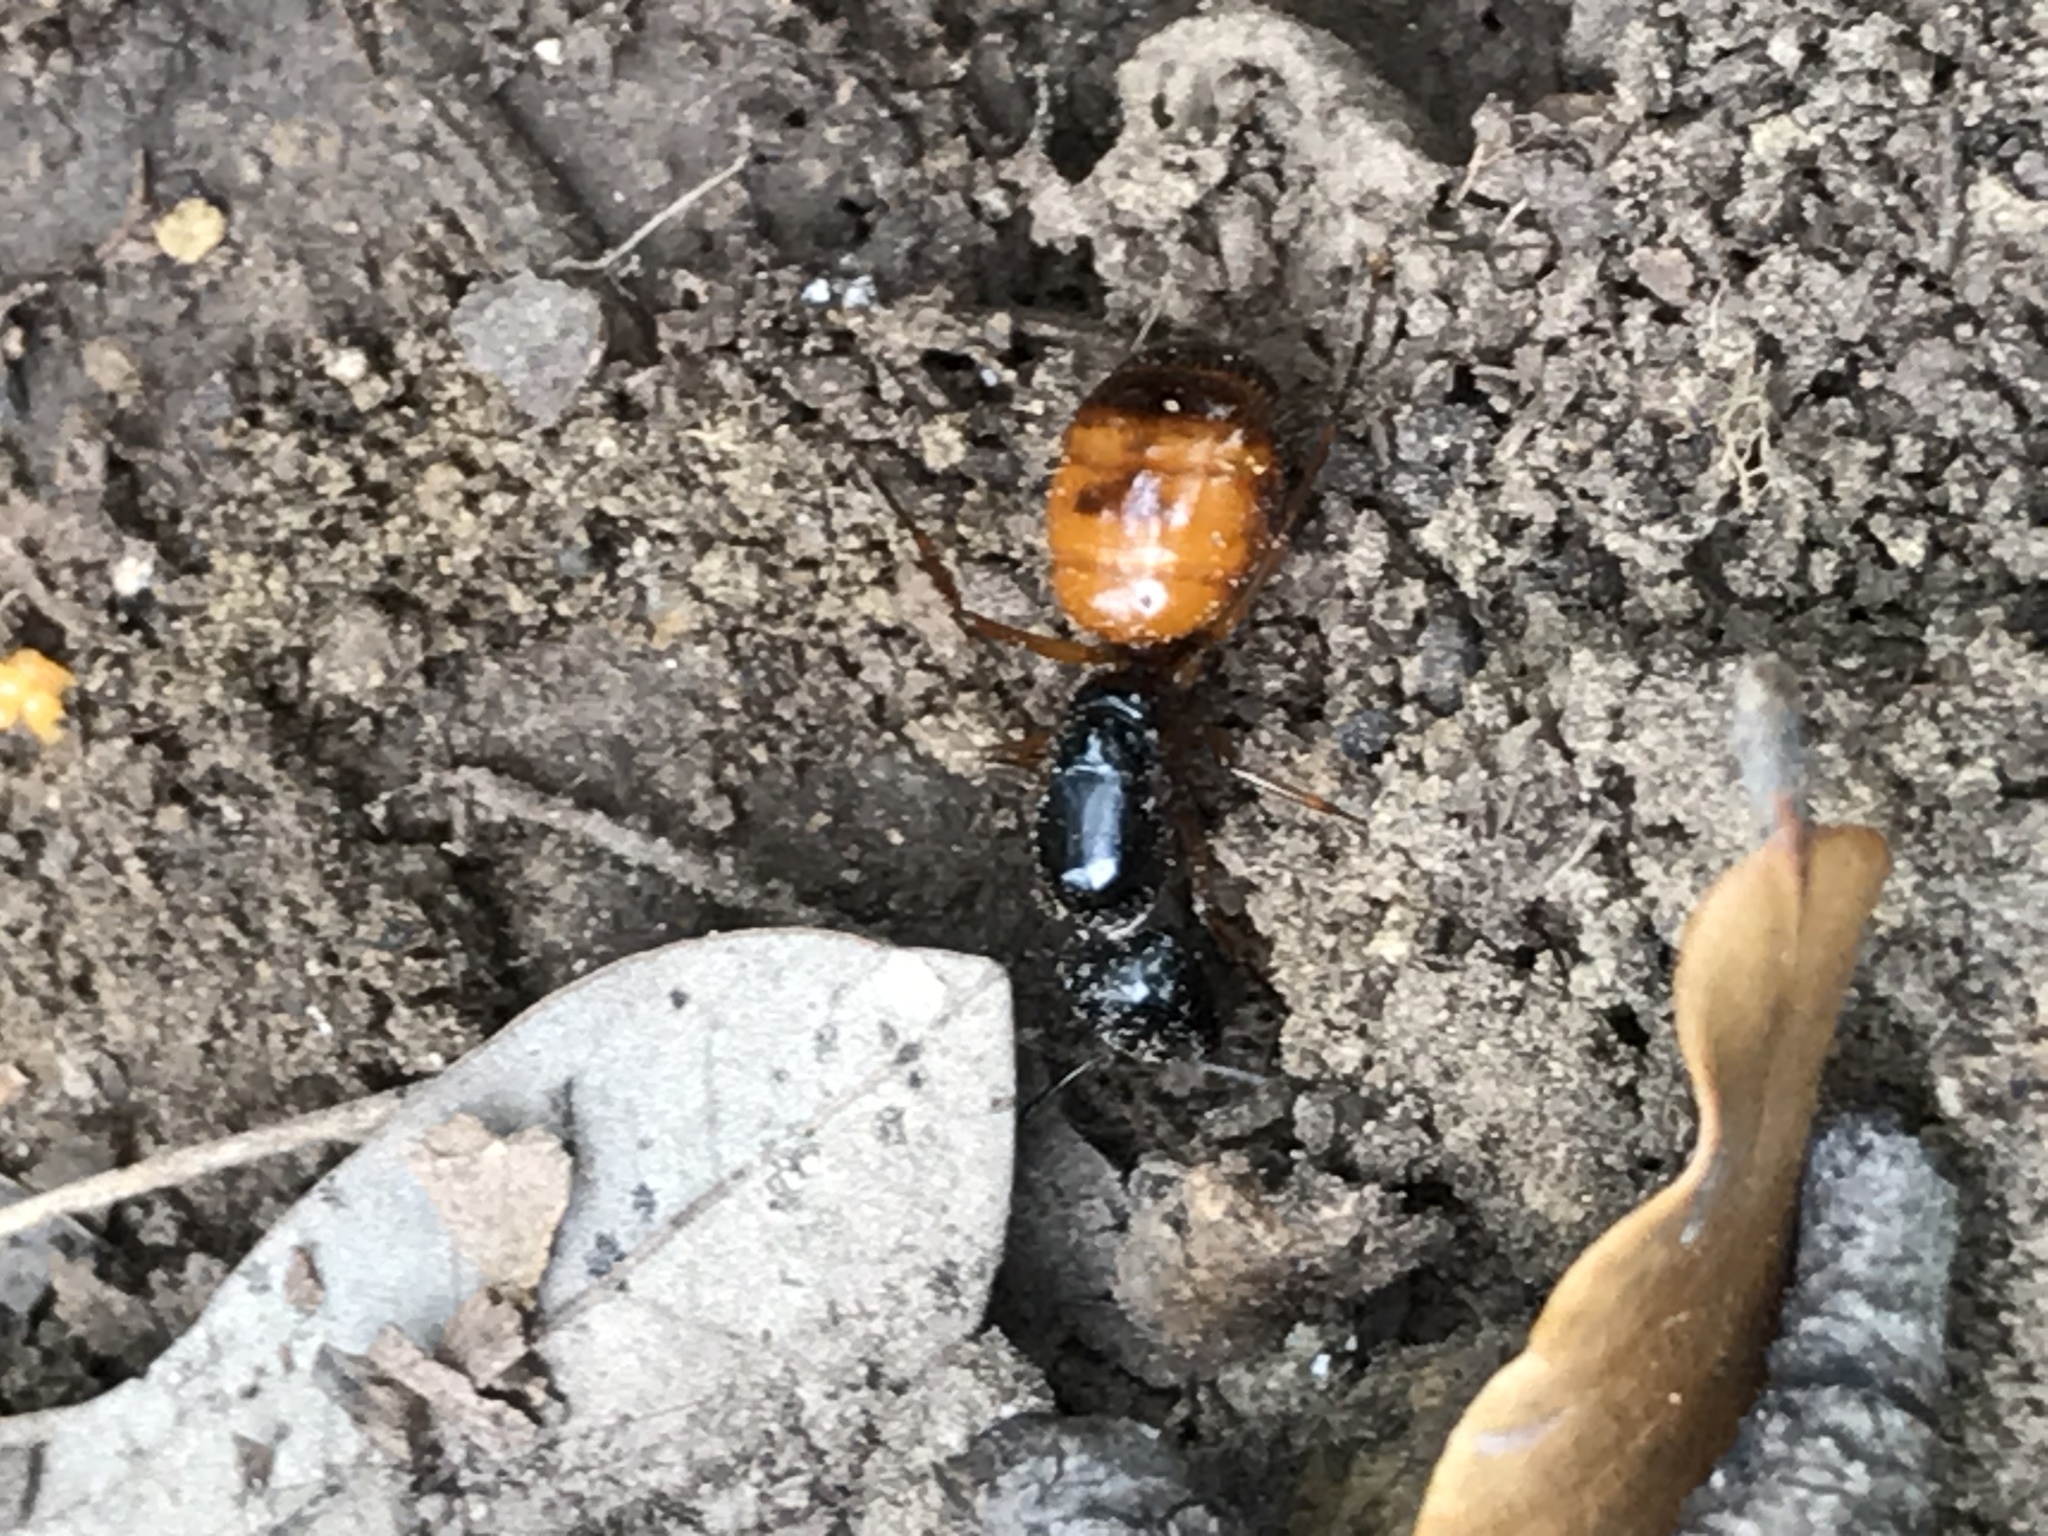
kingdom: Animalia
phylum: Arthropoda
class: Insecta
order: Hymenoptera
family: Formicidae
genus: Camponotus
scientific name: Camponotus sansabeanus
